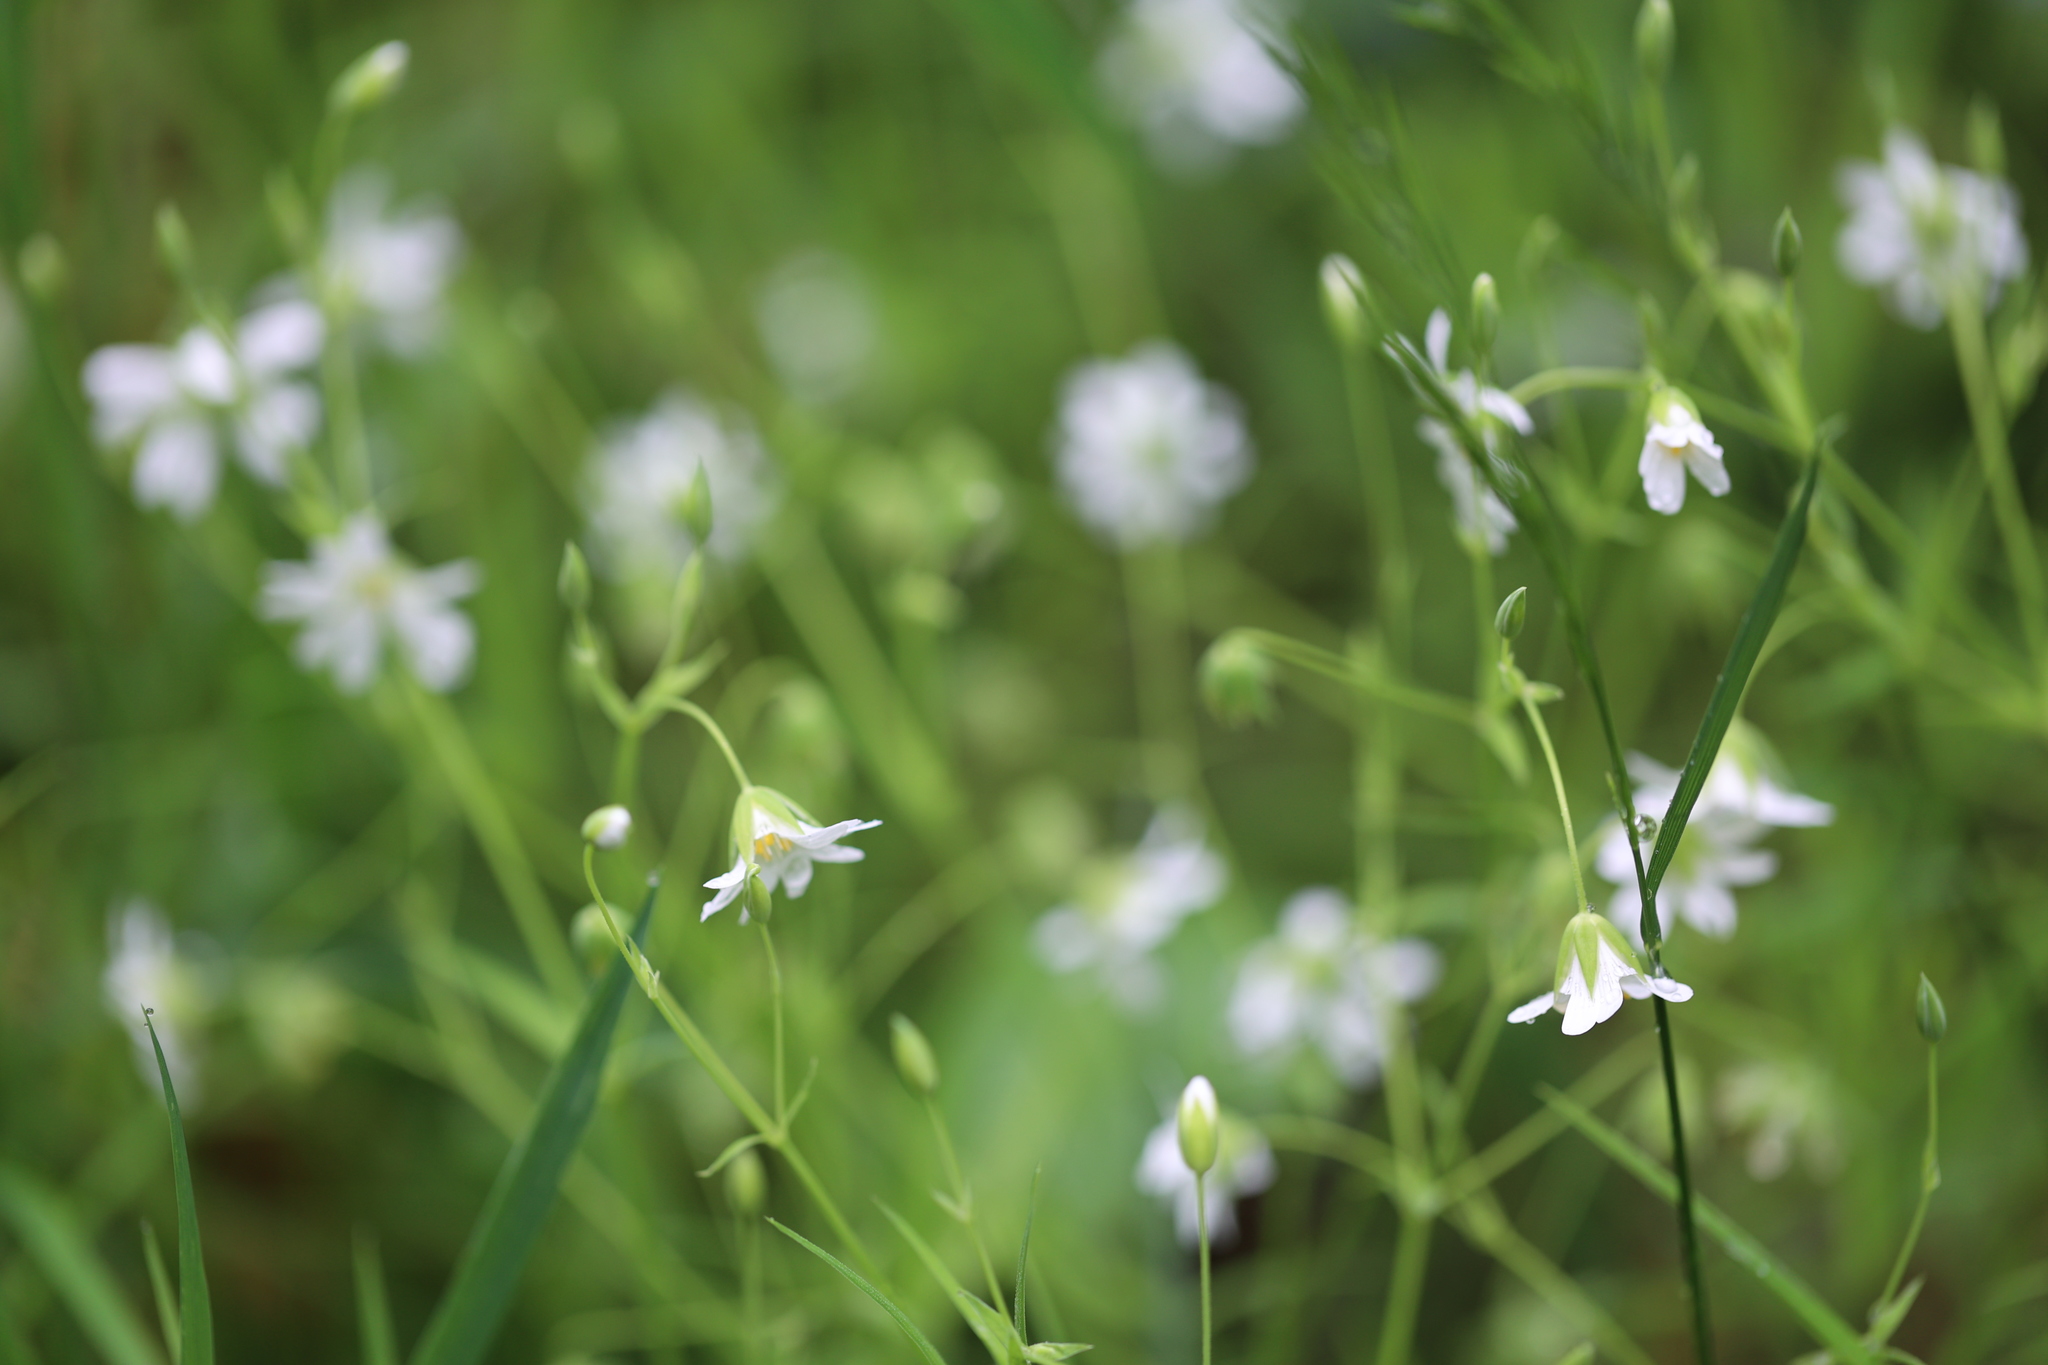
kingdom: Plantae
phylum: Tracheophyta
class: Magnoliopsida
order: Caryophyllales
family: Caryophyllaceae
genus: Rabelera
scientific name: Rabelera holostea
